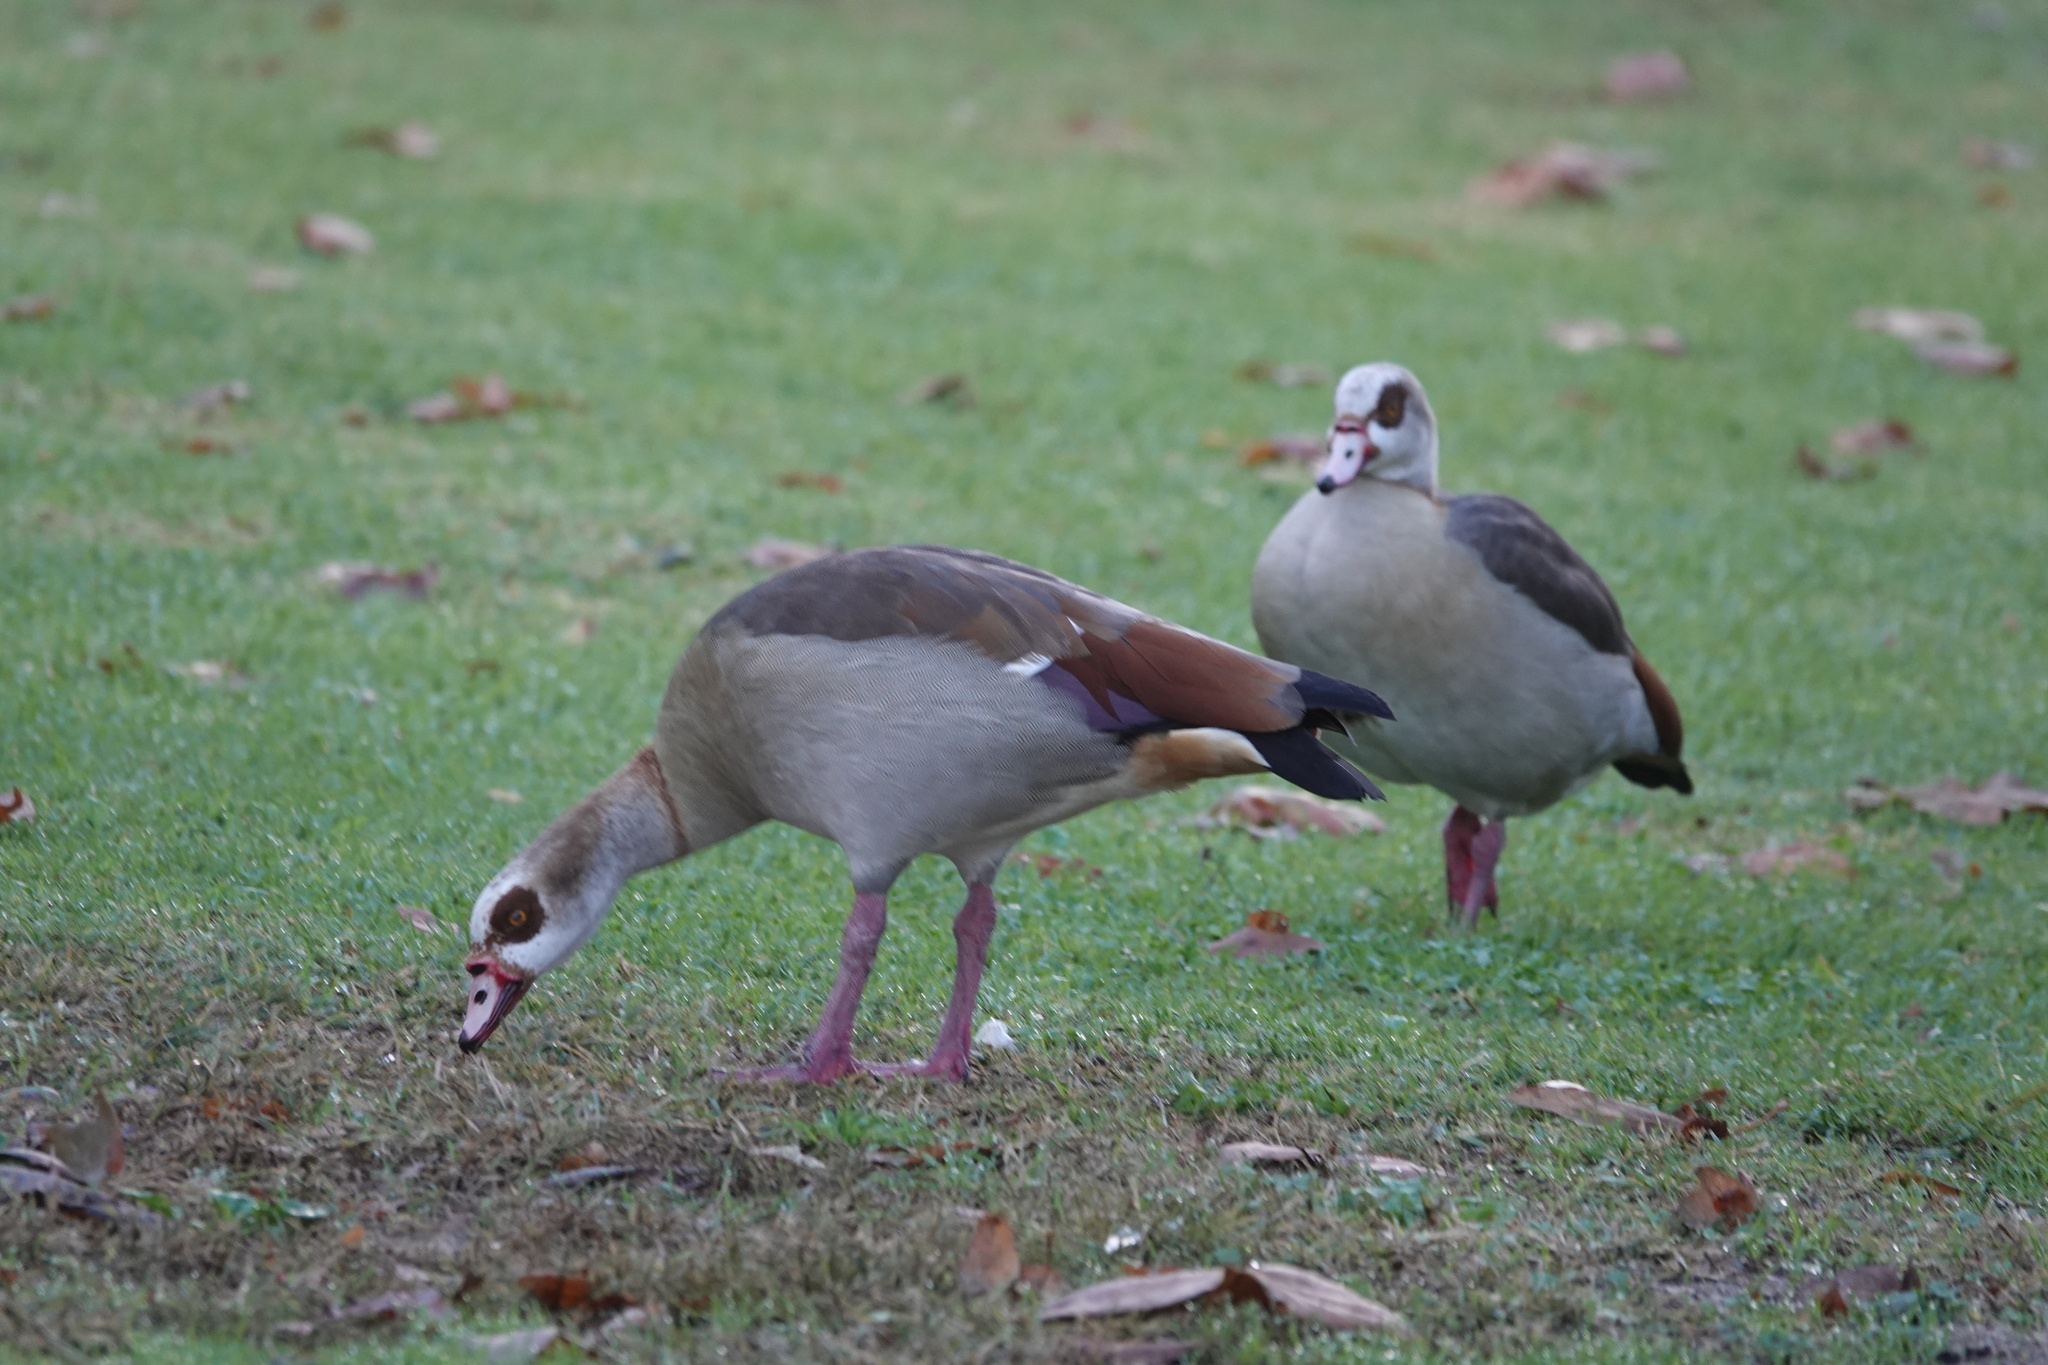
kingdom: Animalia
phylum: Chordata
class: Aves
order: Anseriformes
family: Anatidae
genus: Alopochen
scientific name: Alopochen aegyptiaca
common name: Egyptian goose
